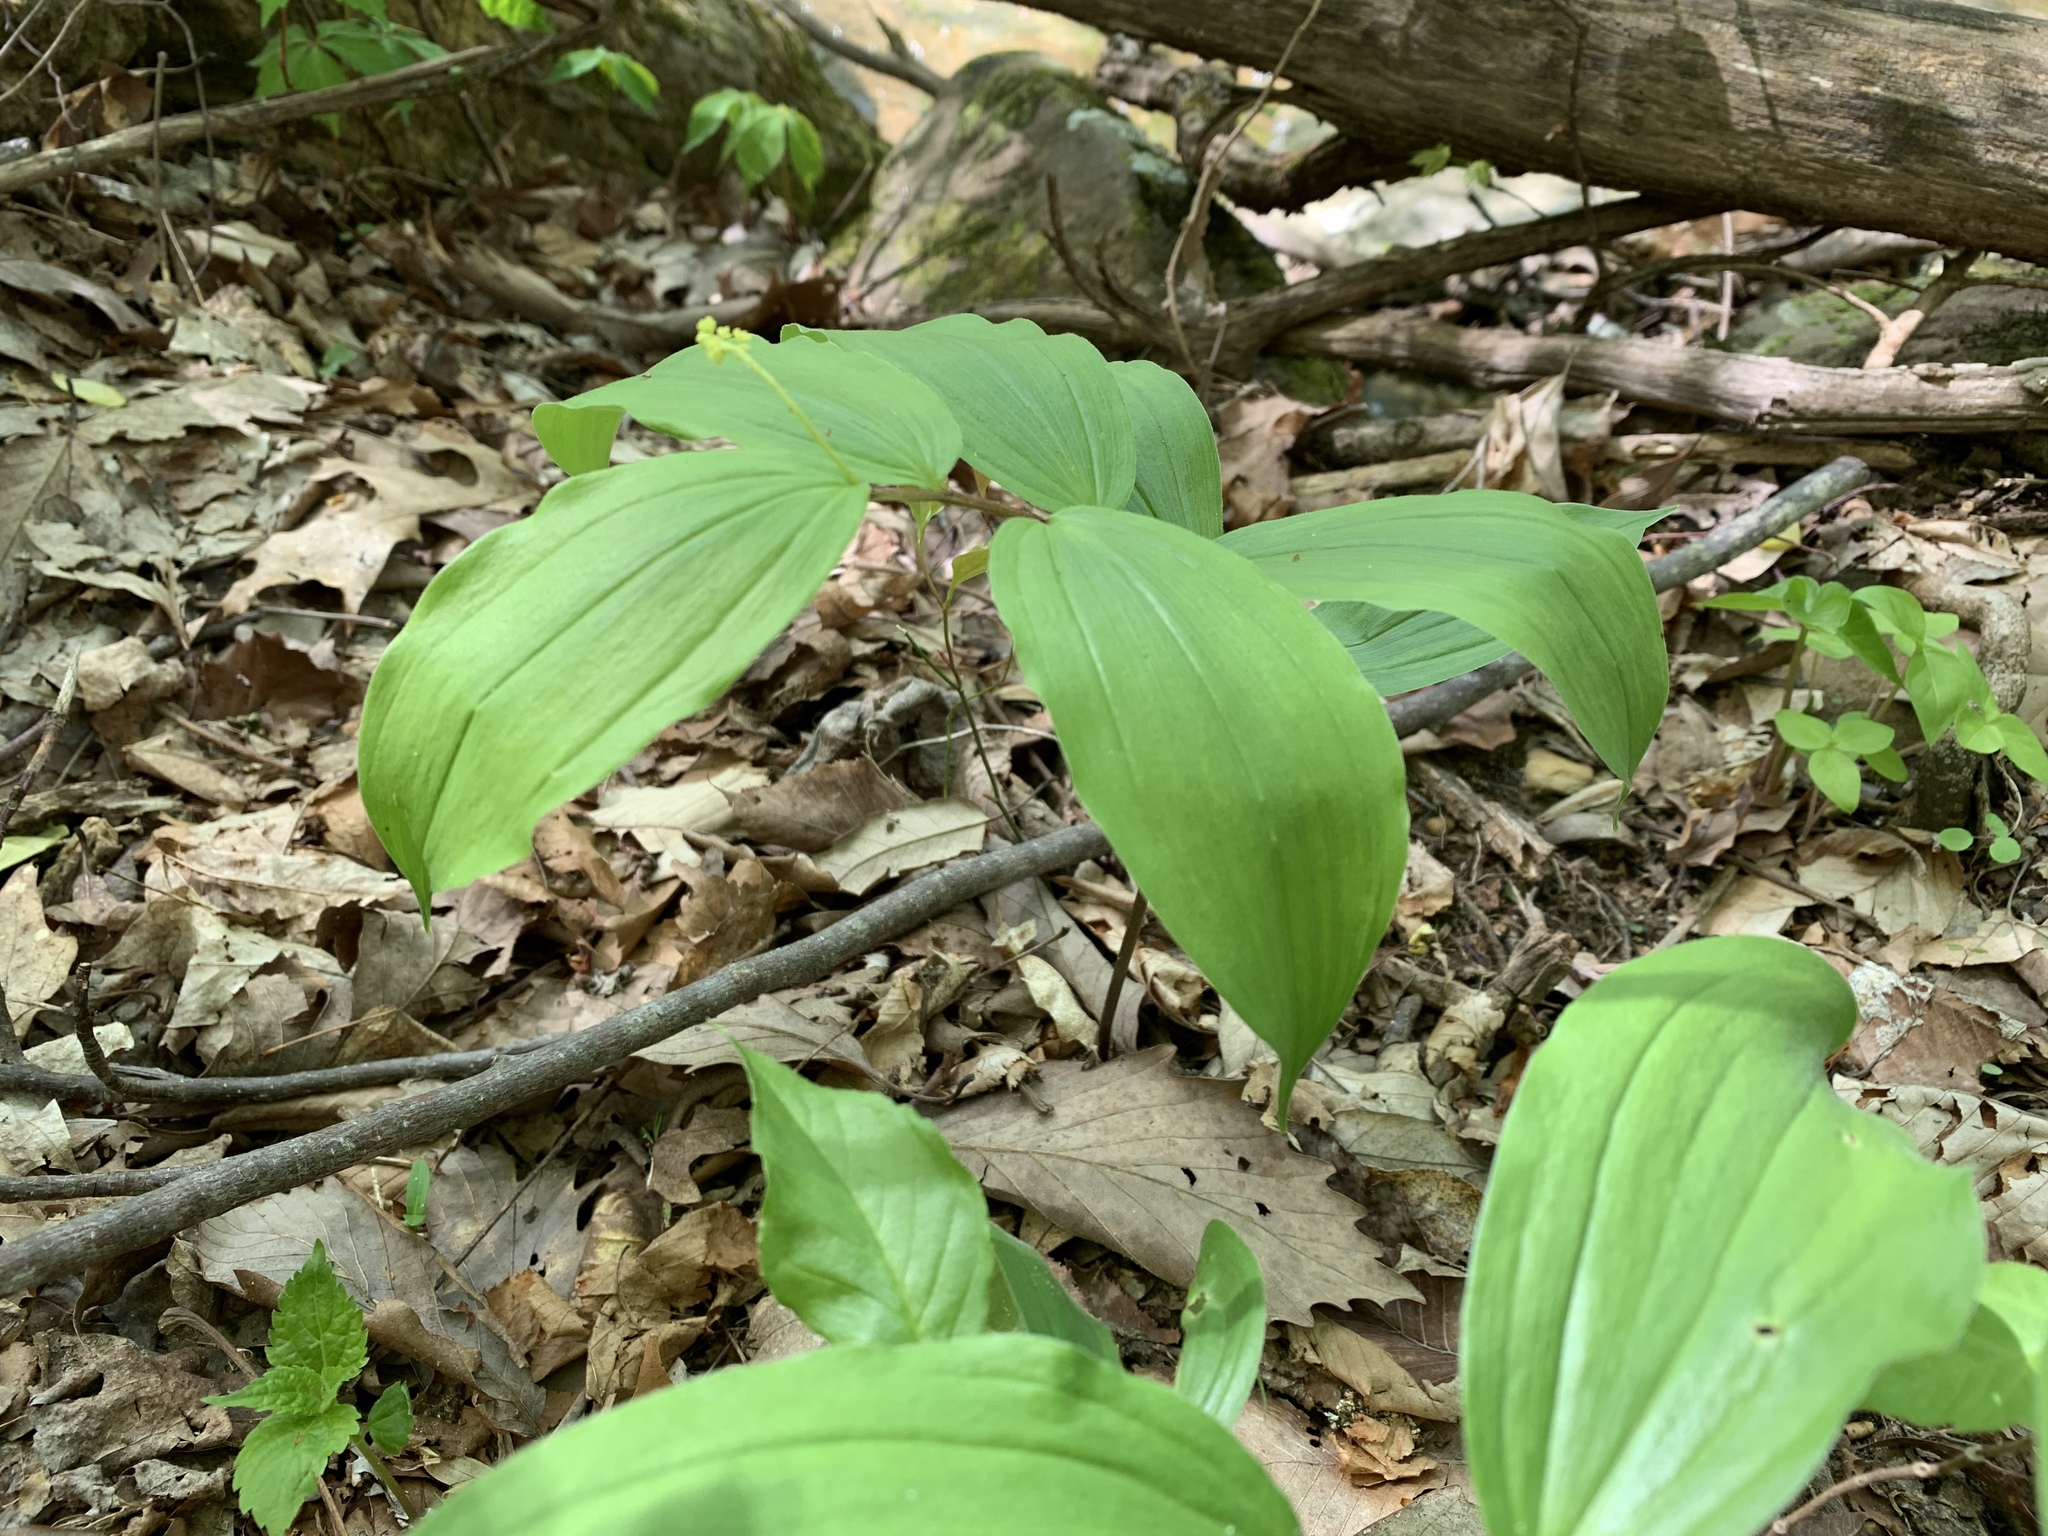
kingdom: Plantae
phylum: Tracheophyta
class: Liliopsida
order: Asparagales
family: Asparagaceae
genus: Maianthemum
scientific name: Maianthemum racemosum
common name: False spikenard
